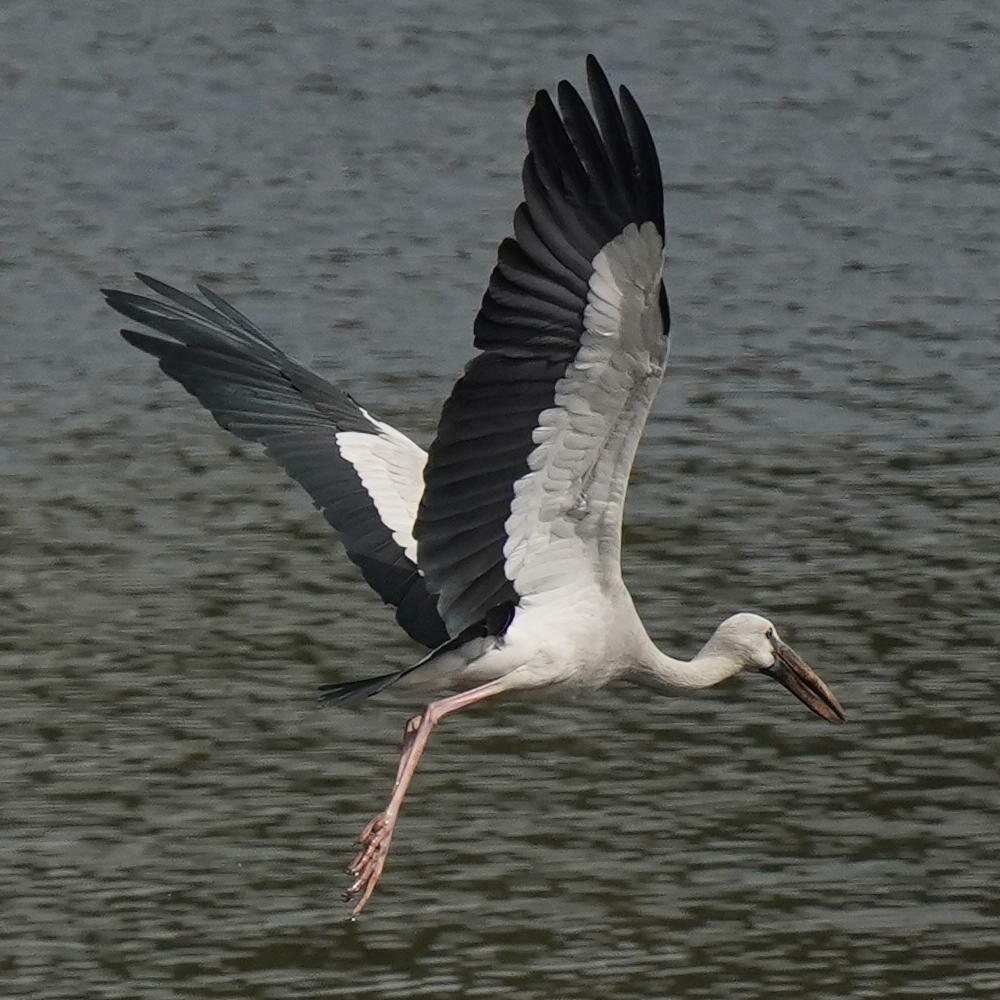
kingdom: Animalia
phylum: Chordata
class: Aves
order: Ciconiiformes
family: Ciconiidae
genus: Anastomus
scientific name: Anastomus oscitans
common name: Asian openbill
